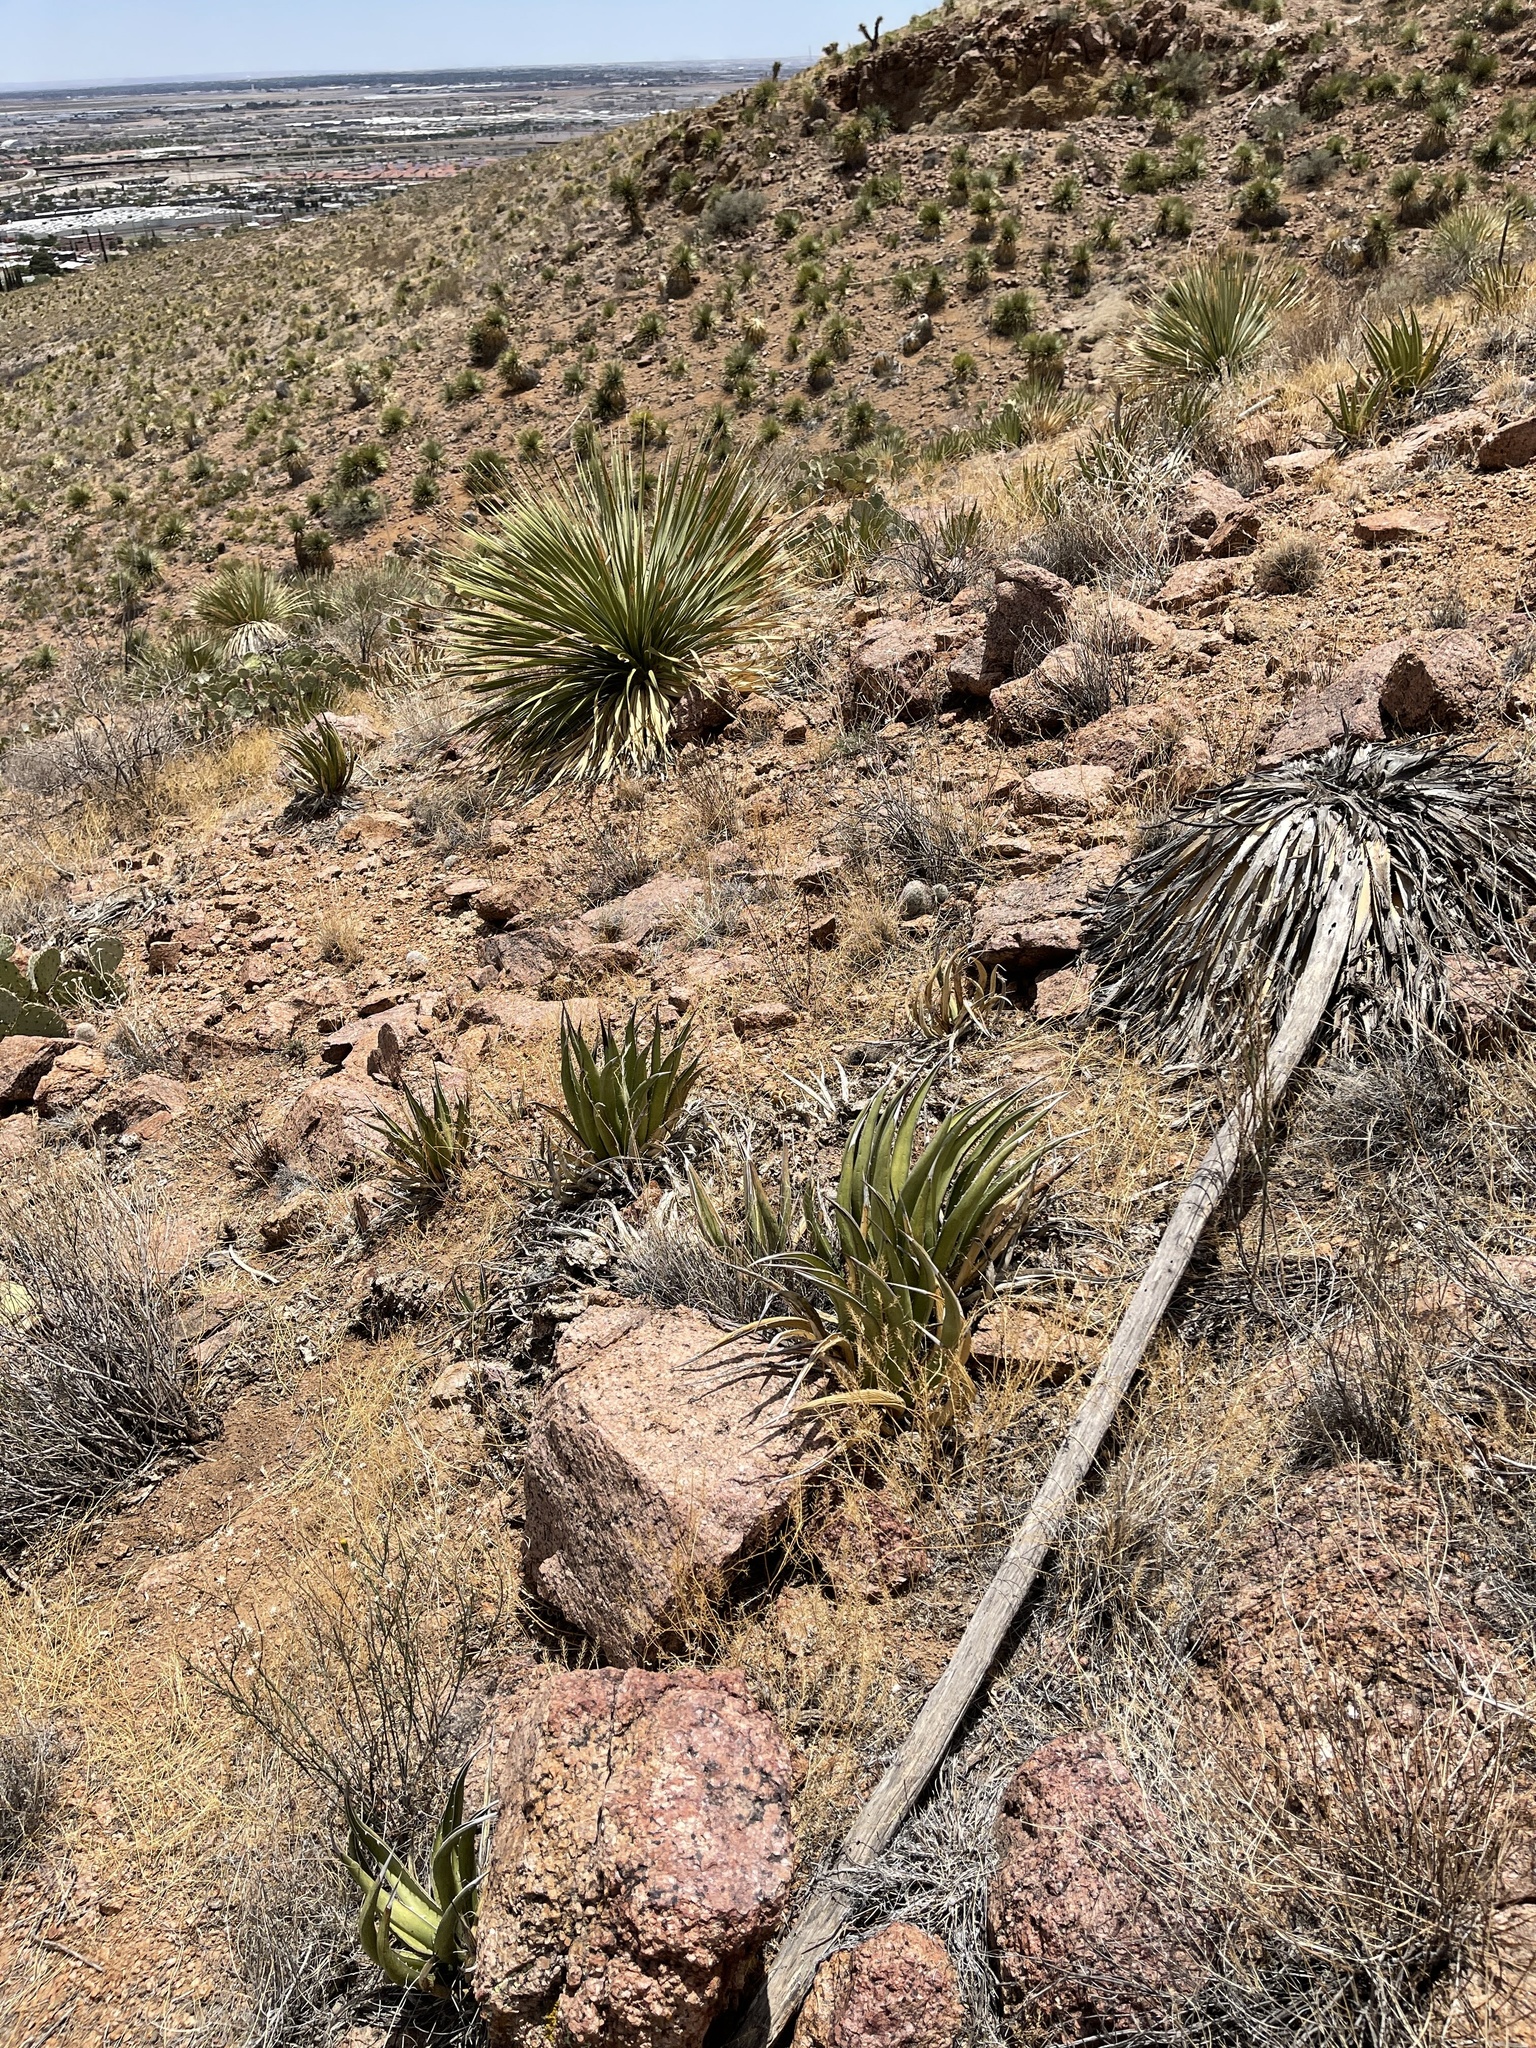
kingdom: Plantae
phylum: Tracheophyta
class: Liliopsida
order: Asparagales
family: Asparagaceae
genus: Agave
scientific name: Agave lechuguilla
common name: Lecheguilla agave
